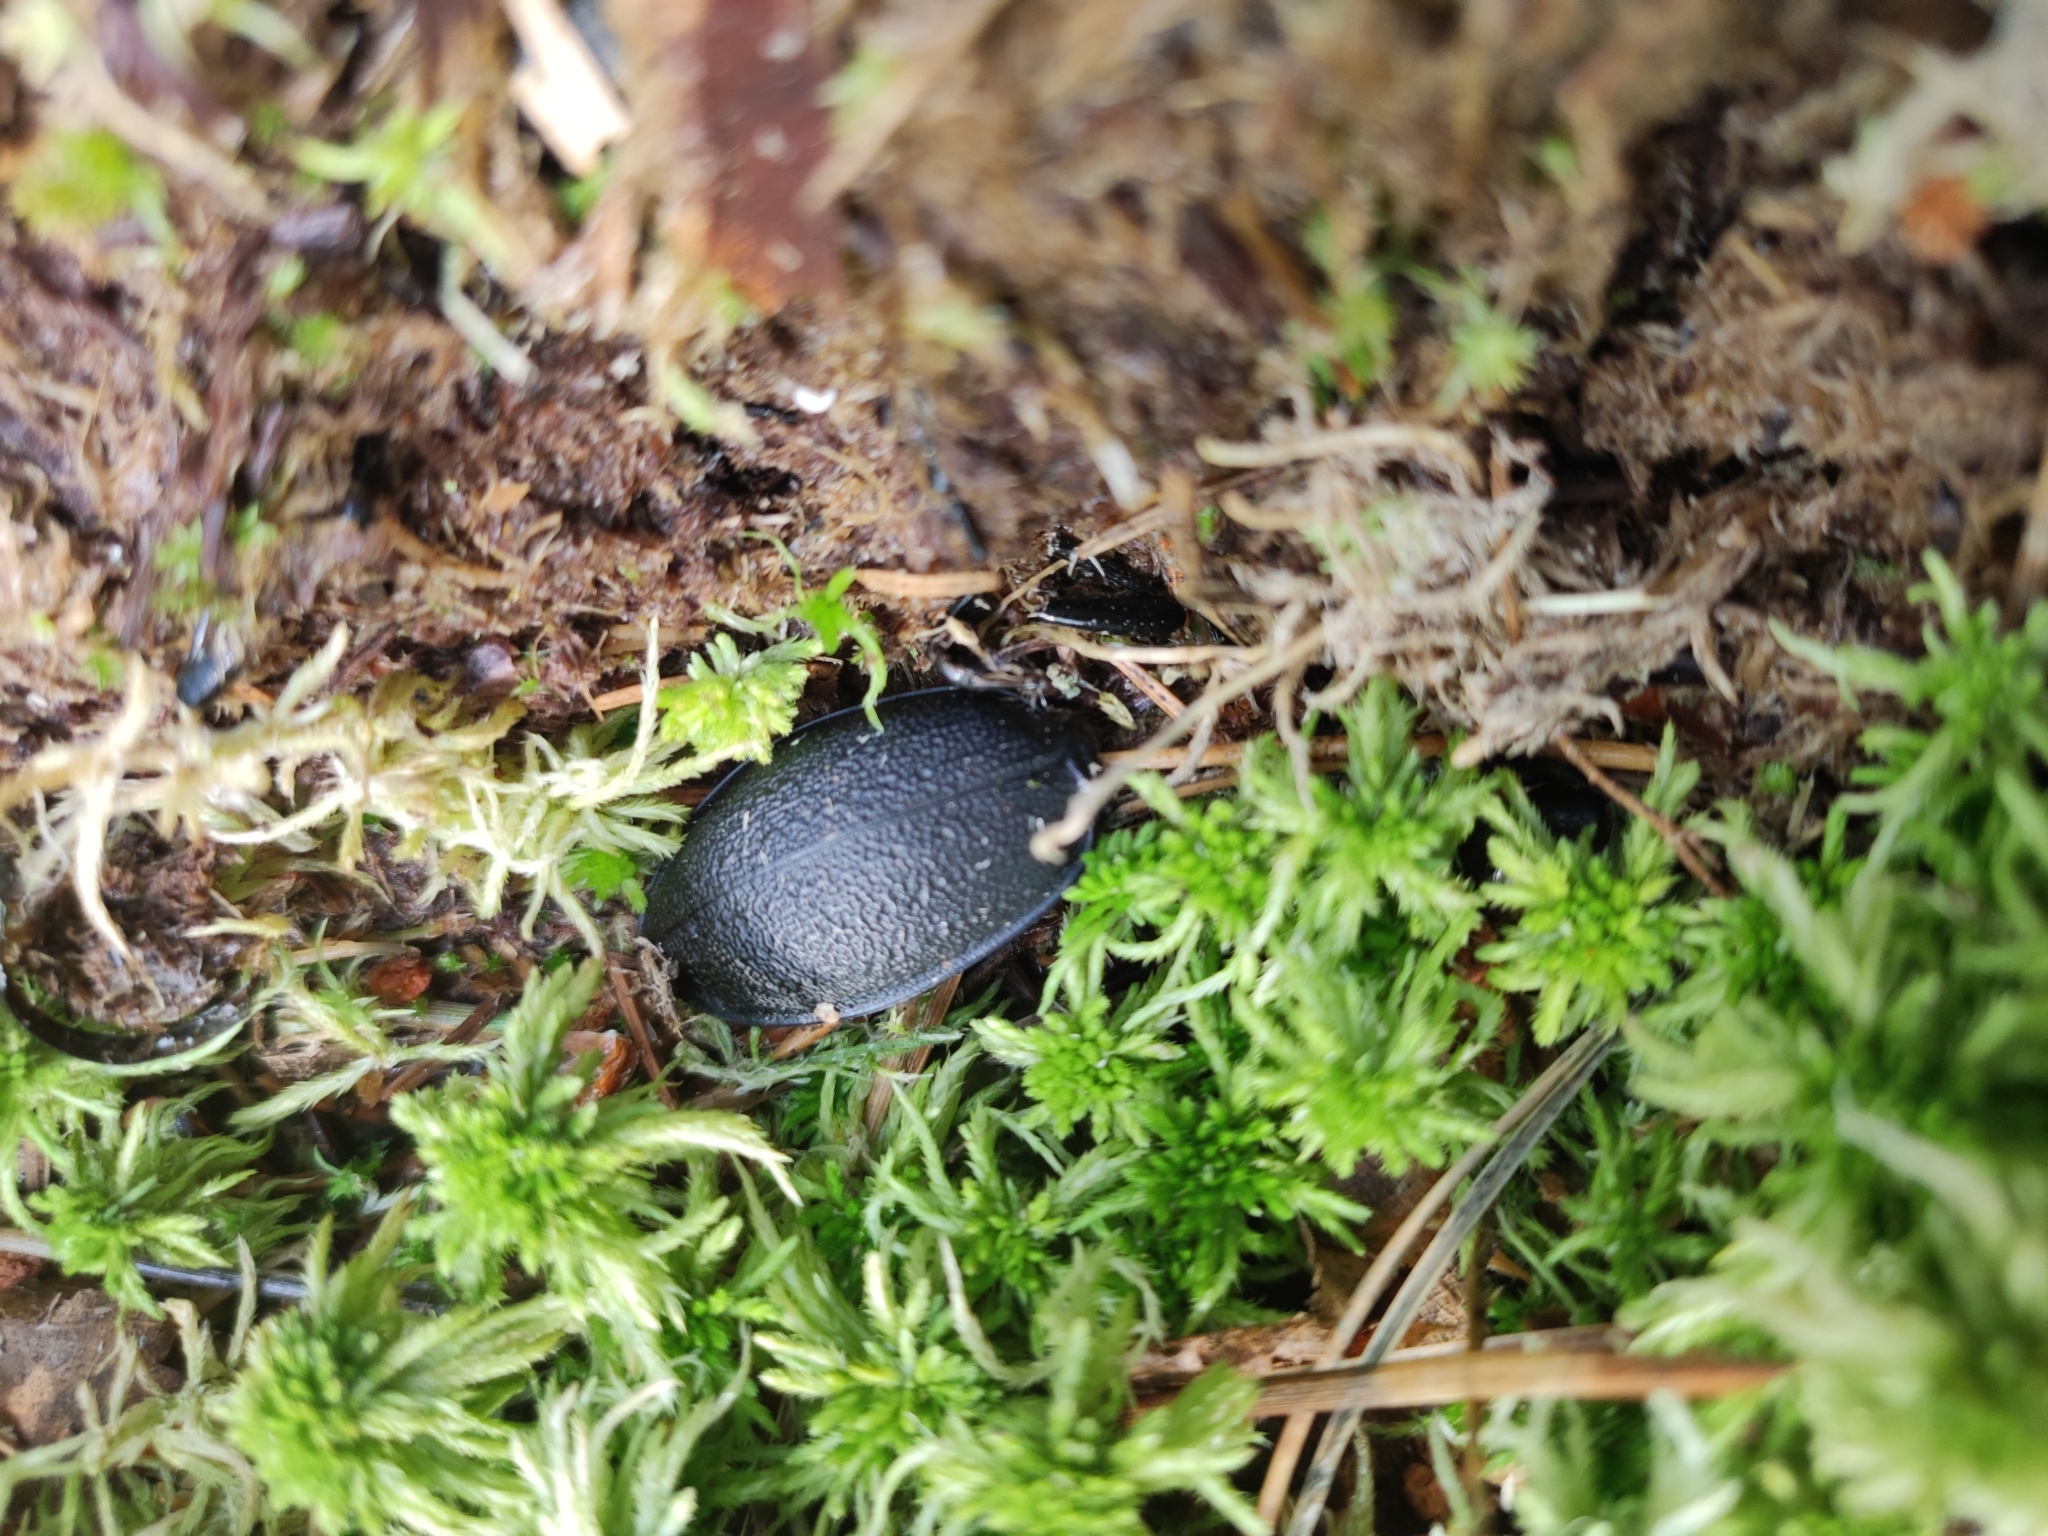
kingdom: Animalia
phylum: Arthropoda
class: Insecta
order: Coleoptera
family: Carabidae
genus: Carabus
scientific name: Carabus coriaceus
